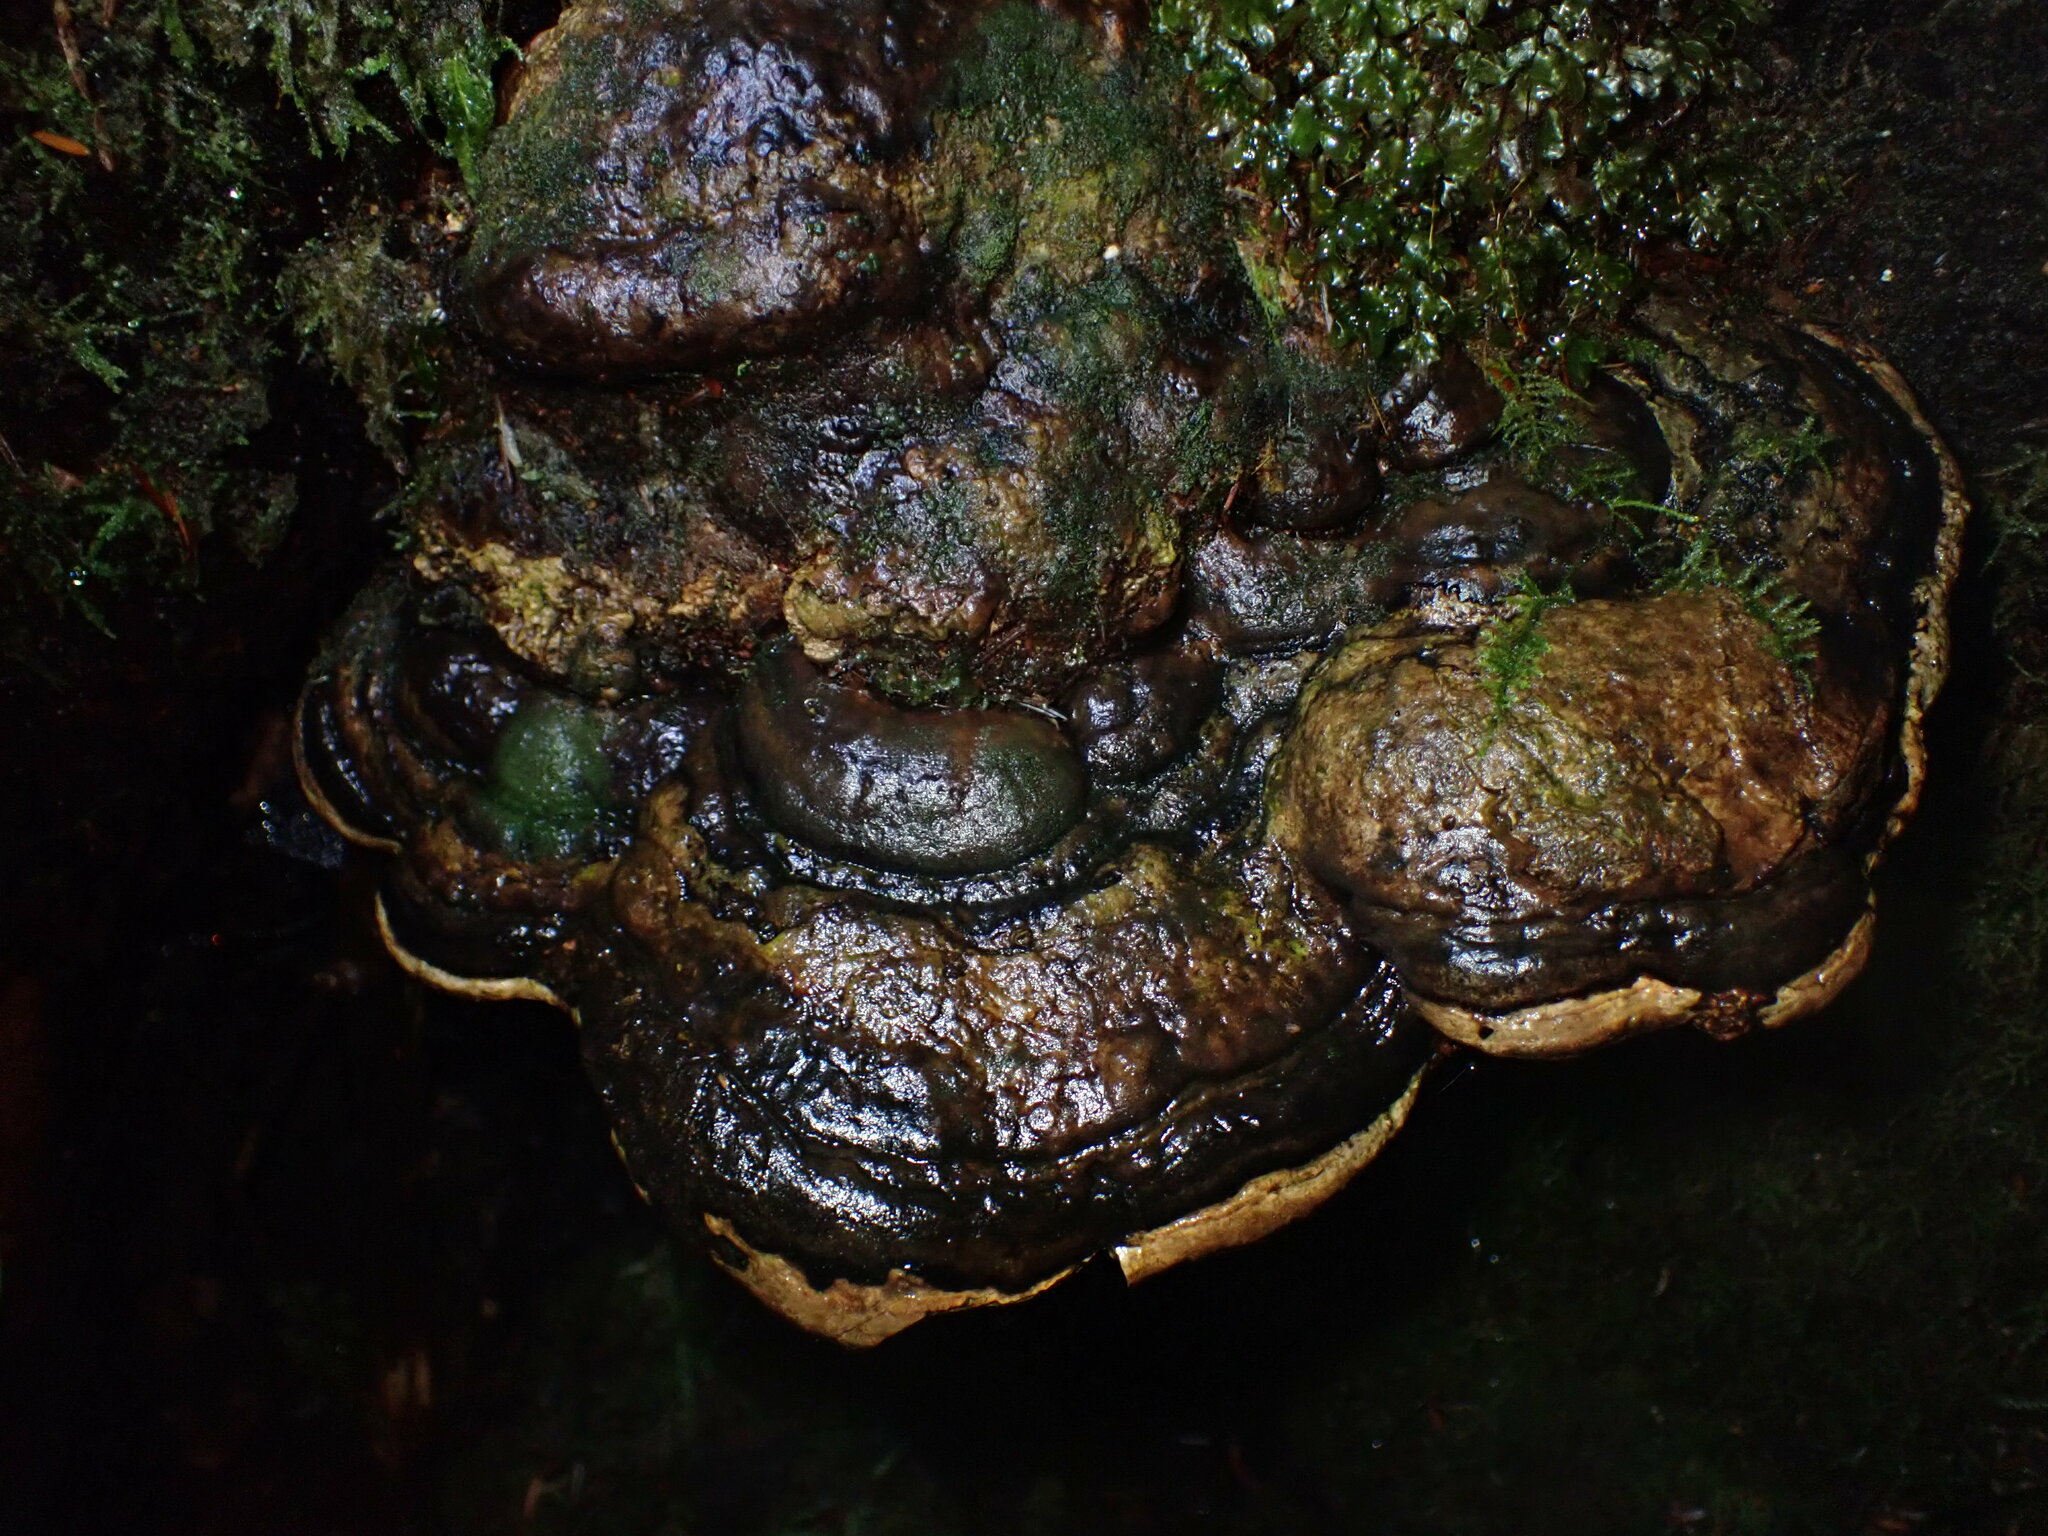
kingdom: Fungi
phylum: Basidiomycota
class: Agaricomycetes
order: Polyporales
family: Fomitopsidaceae
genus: Fomitopsis
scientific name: Fomitopsis ochracea
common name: American brown fomitopsis
